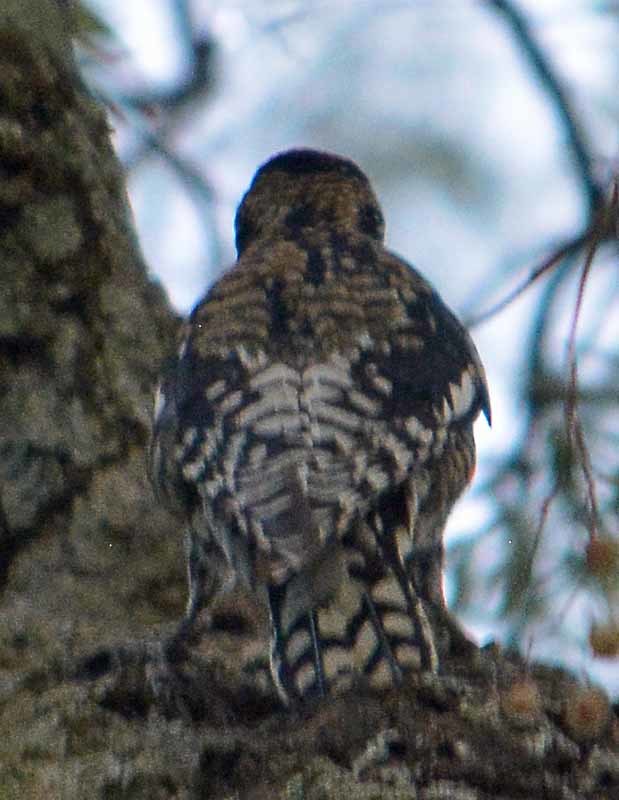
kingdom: Animalia
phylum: Chordata
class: Aves
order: Piciformes
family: Picidae
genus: Sphyrapicus
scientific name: Sphyrapicus varius
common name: Yellow-bellied sapsucker
